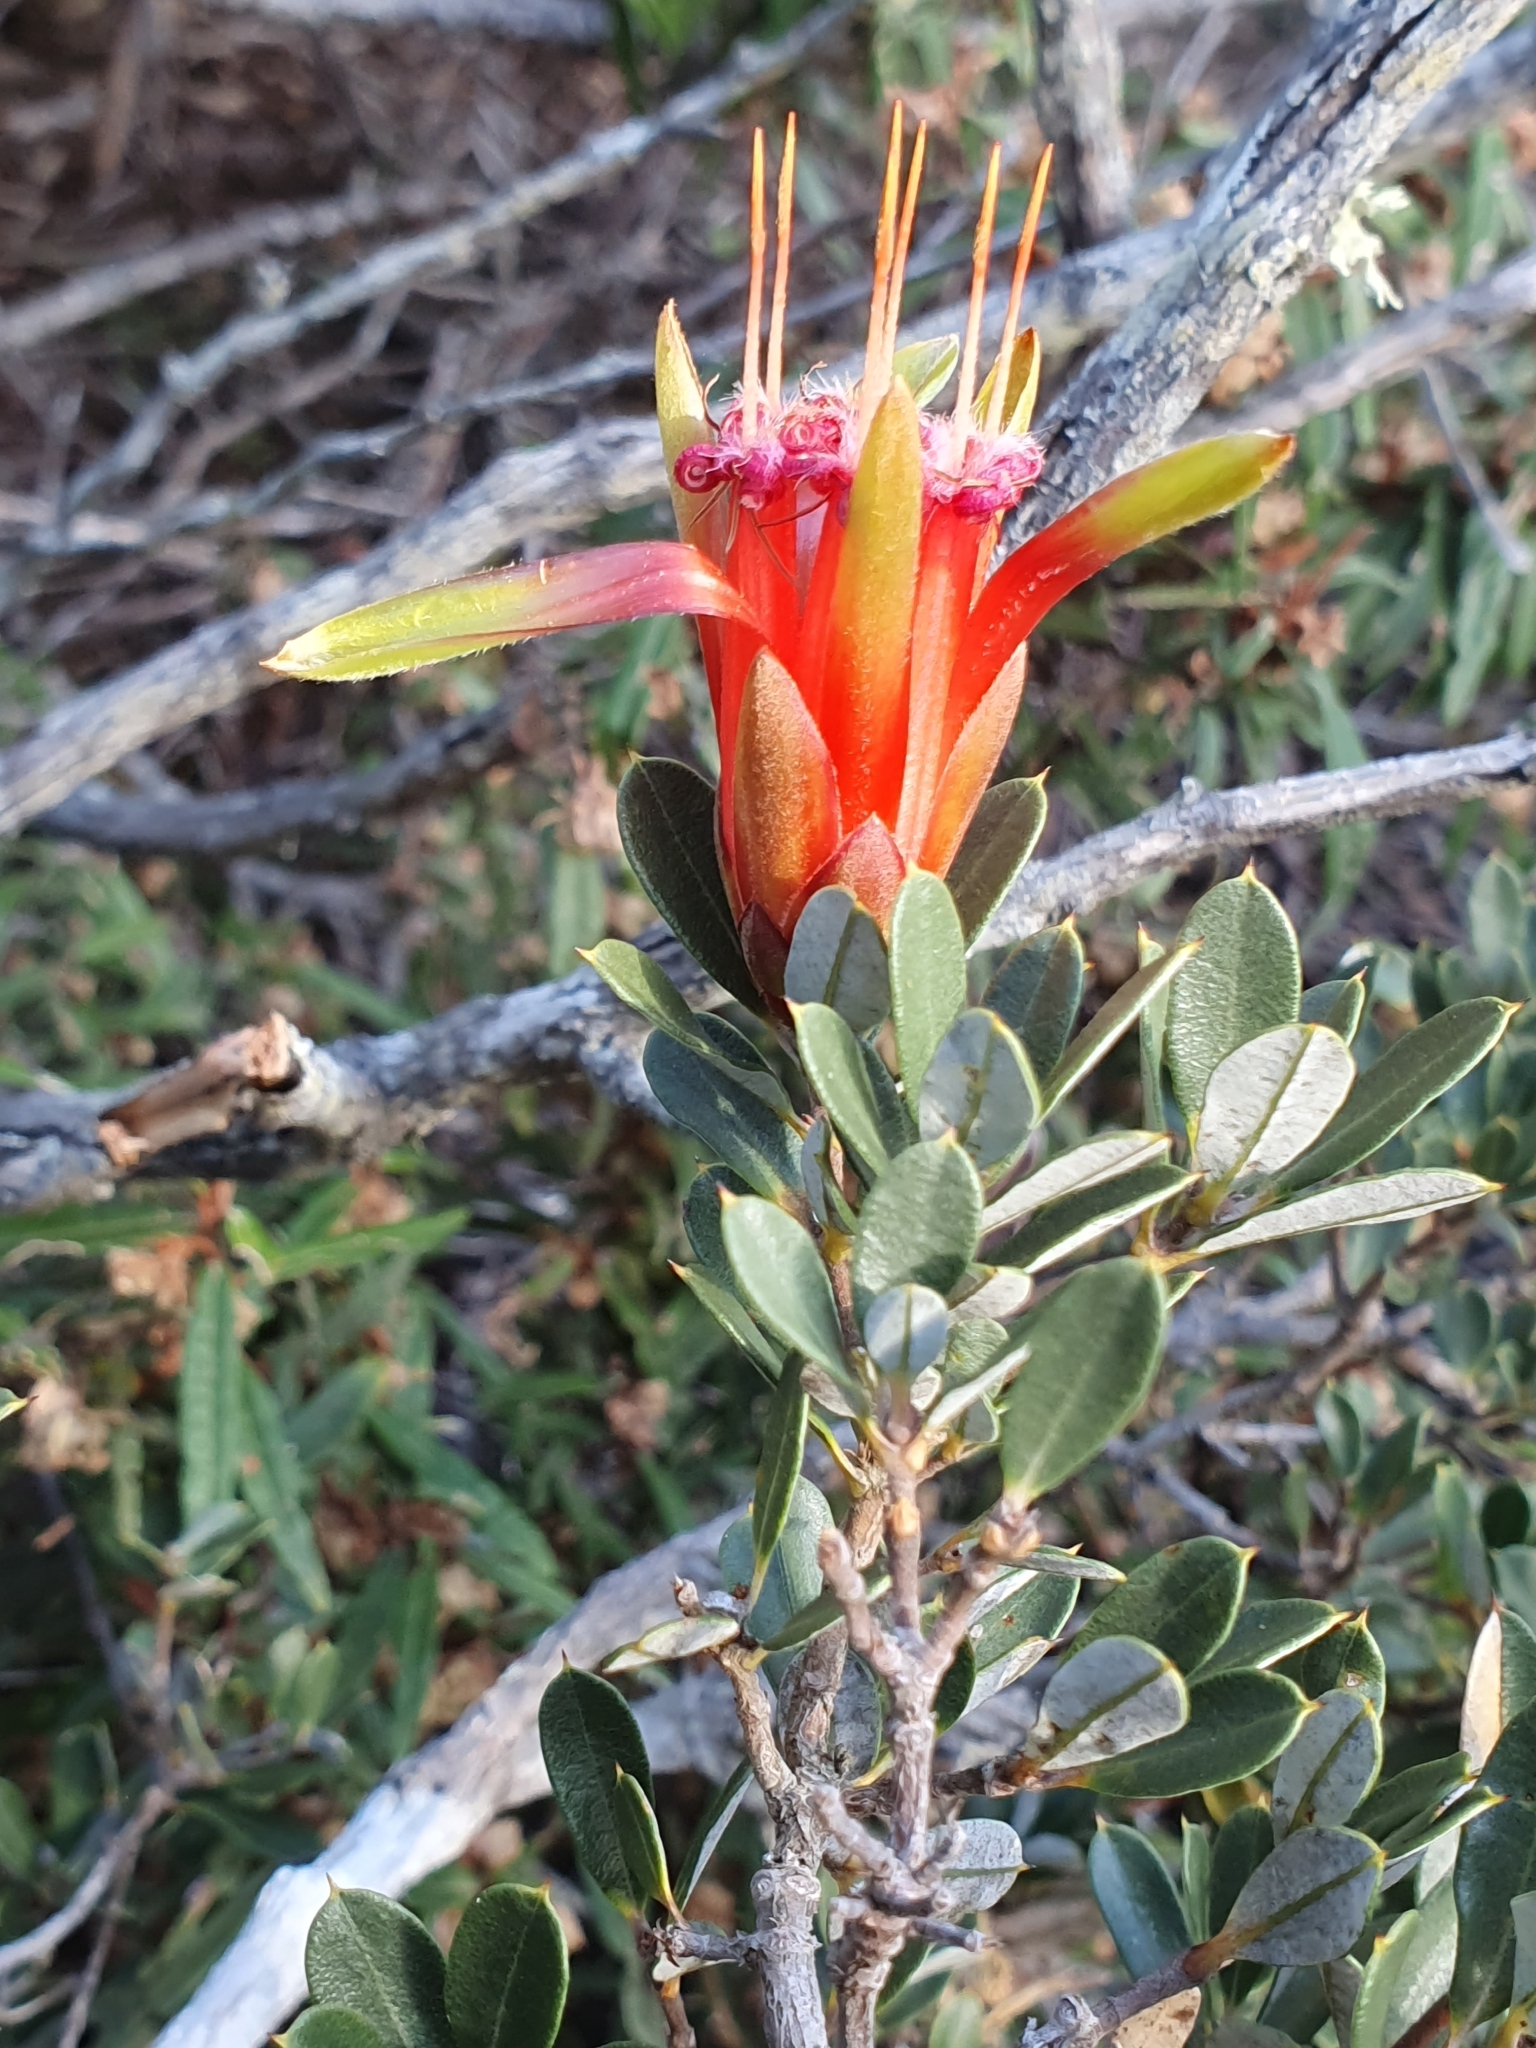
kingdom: Plantae
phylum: Tracheophyta
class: Magnoliopsida
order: Proteales
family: Proteaceae
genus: Lambertia
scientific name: Lambertia formosa
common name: Mountain-devil
